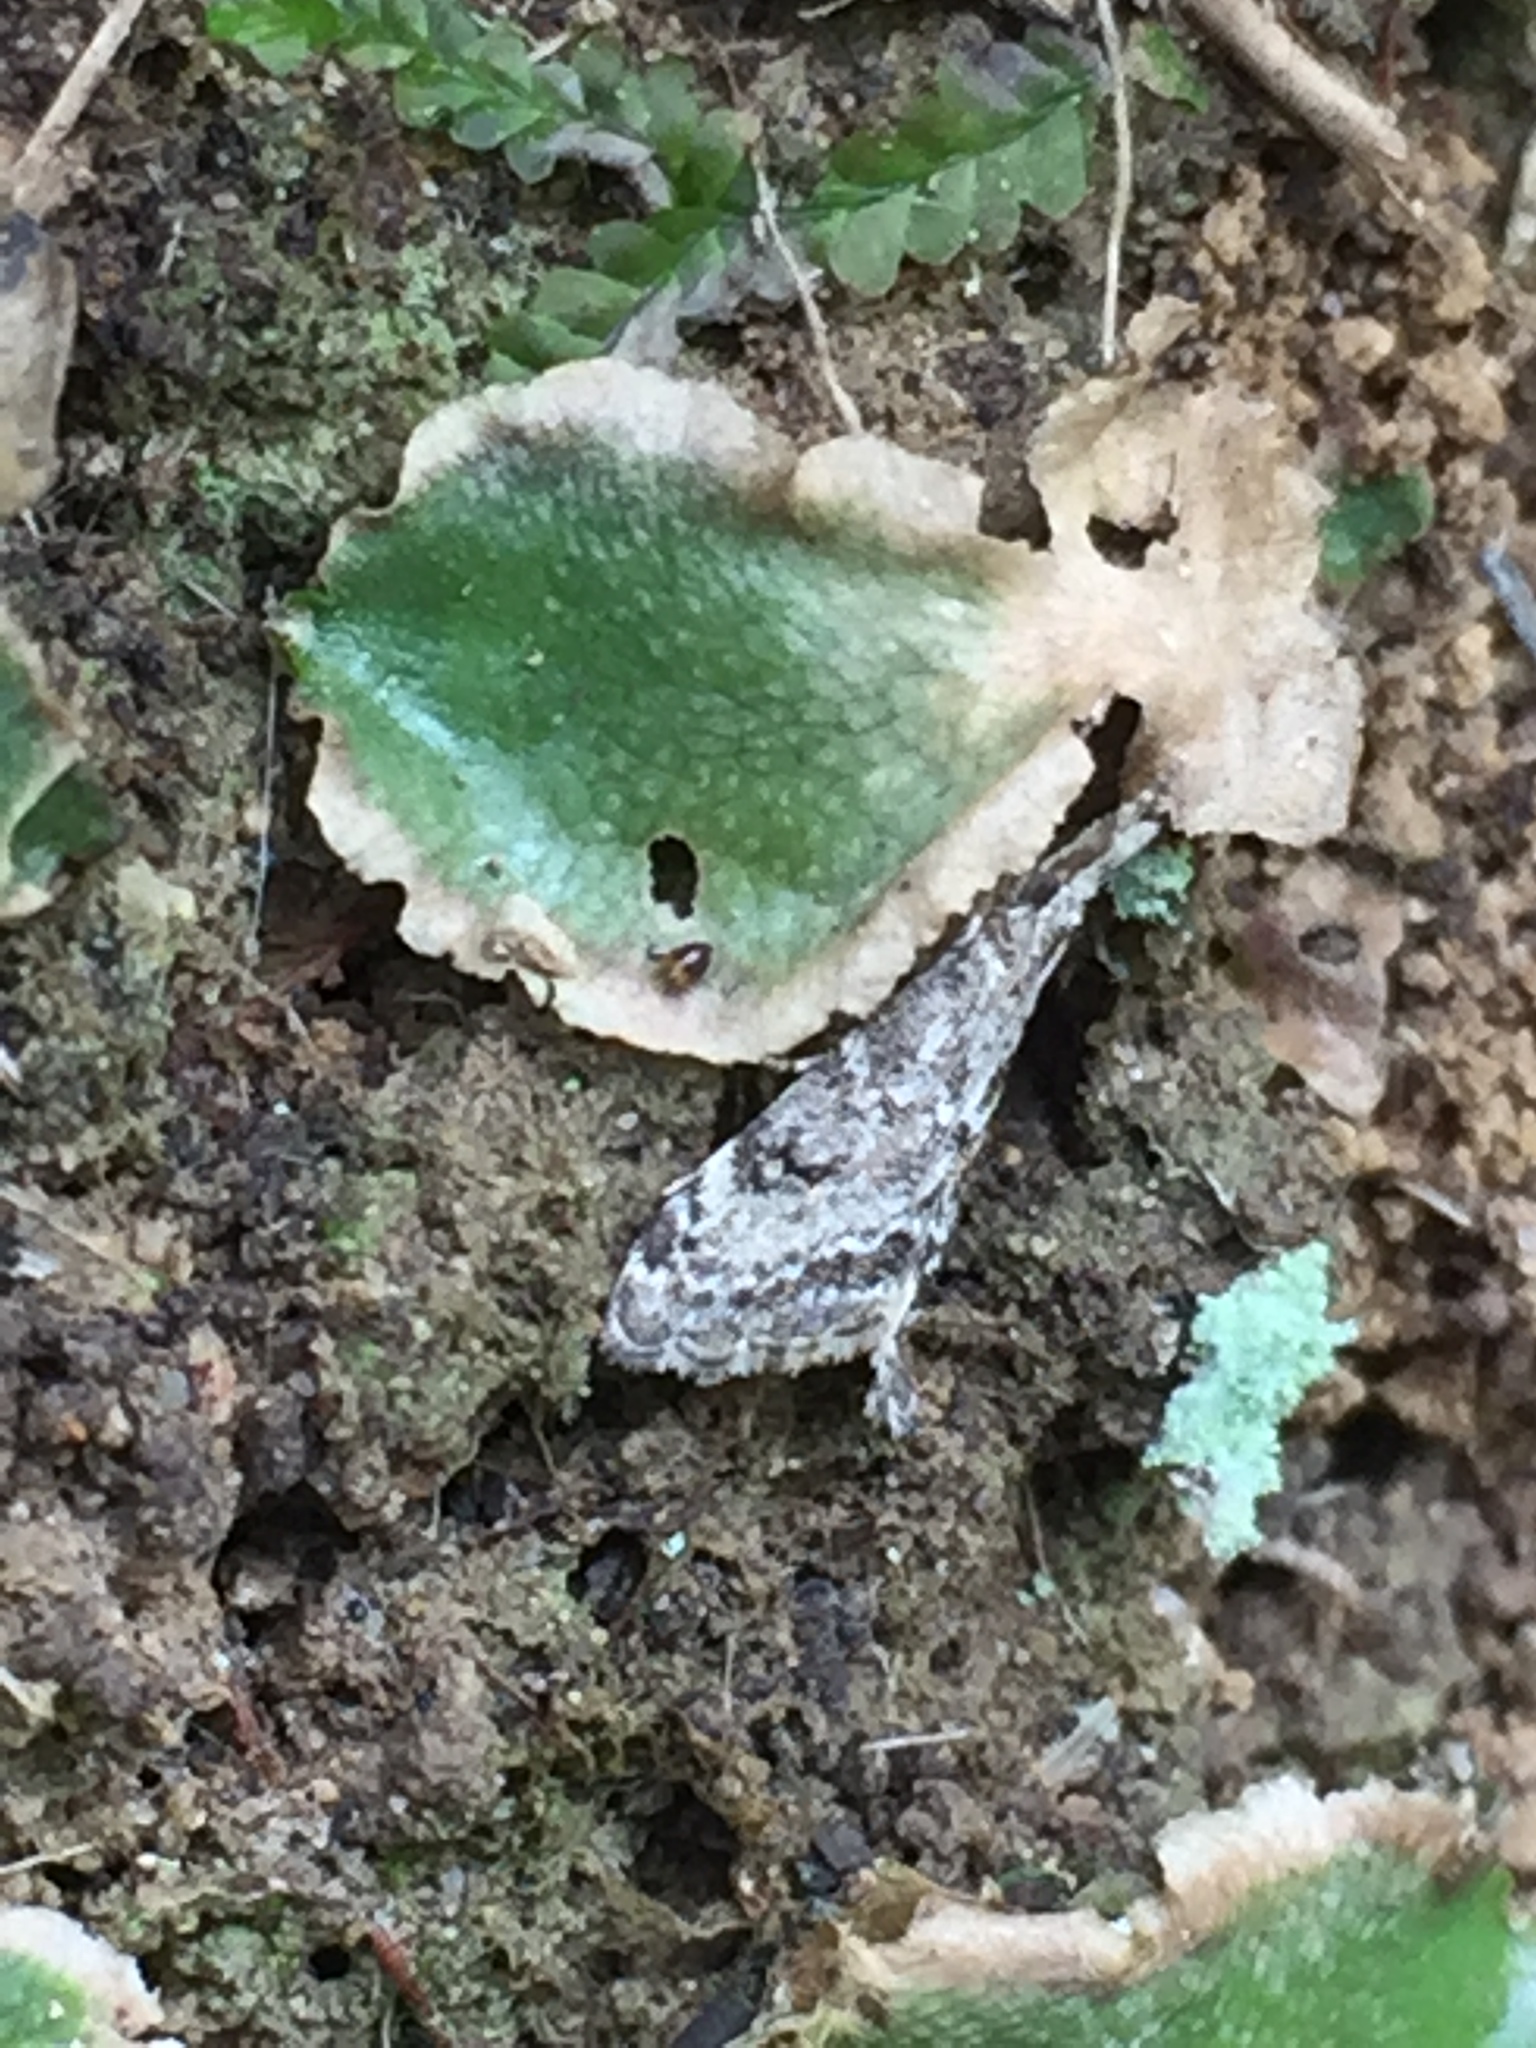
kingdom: Animalia
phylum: Arthropoda
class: Insecta
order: Lepidoptera
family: Crambidae
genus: Glaucocharis
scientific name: Glaucocharis elaina
